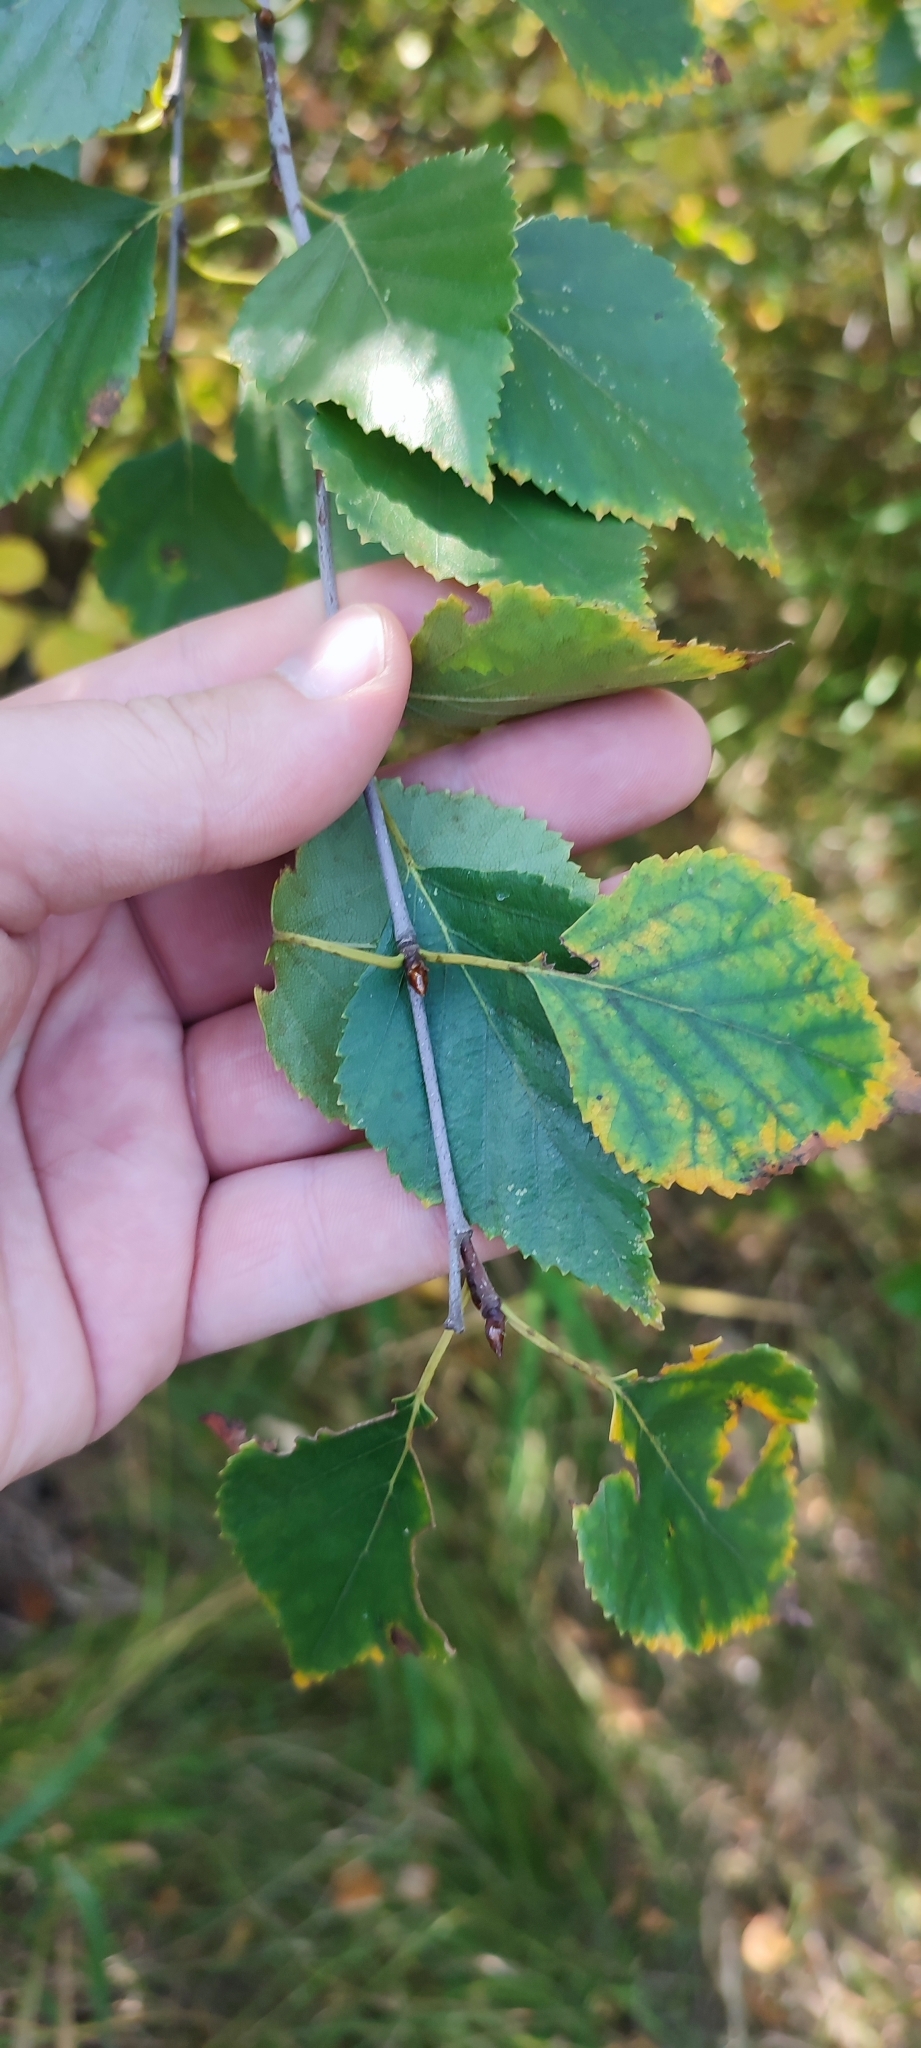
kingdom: Plantae
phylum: Tracheophyta
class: Magnoliopsida
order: Fagales
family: Betulaceae
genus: Betula
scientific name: Betula pendula
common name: Silver birch
